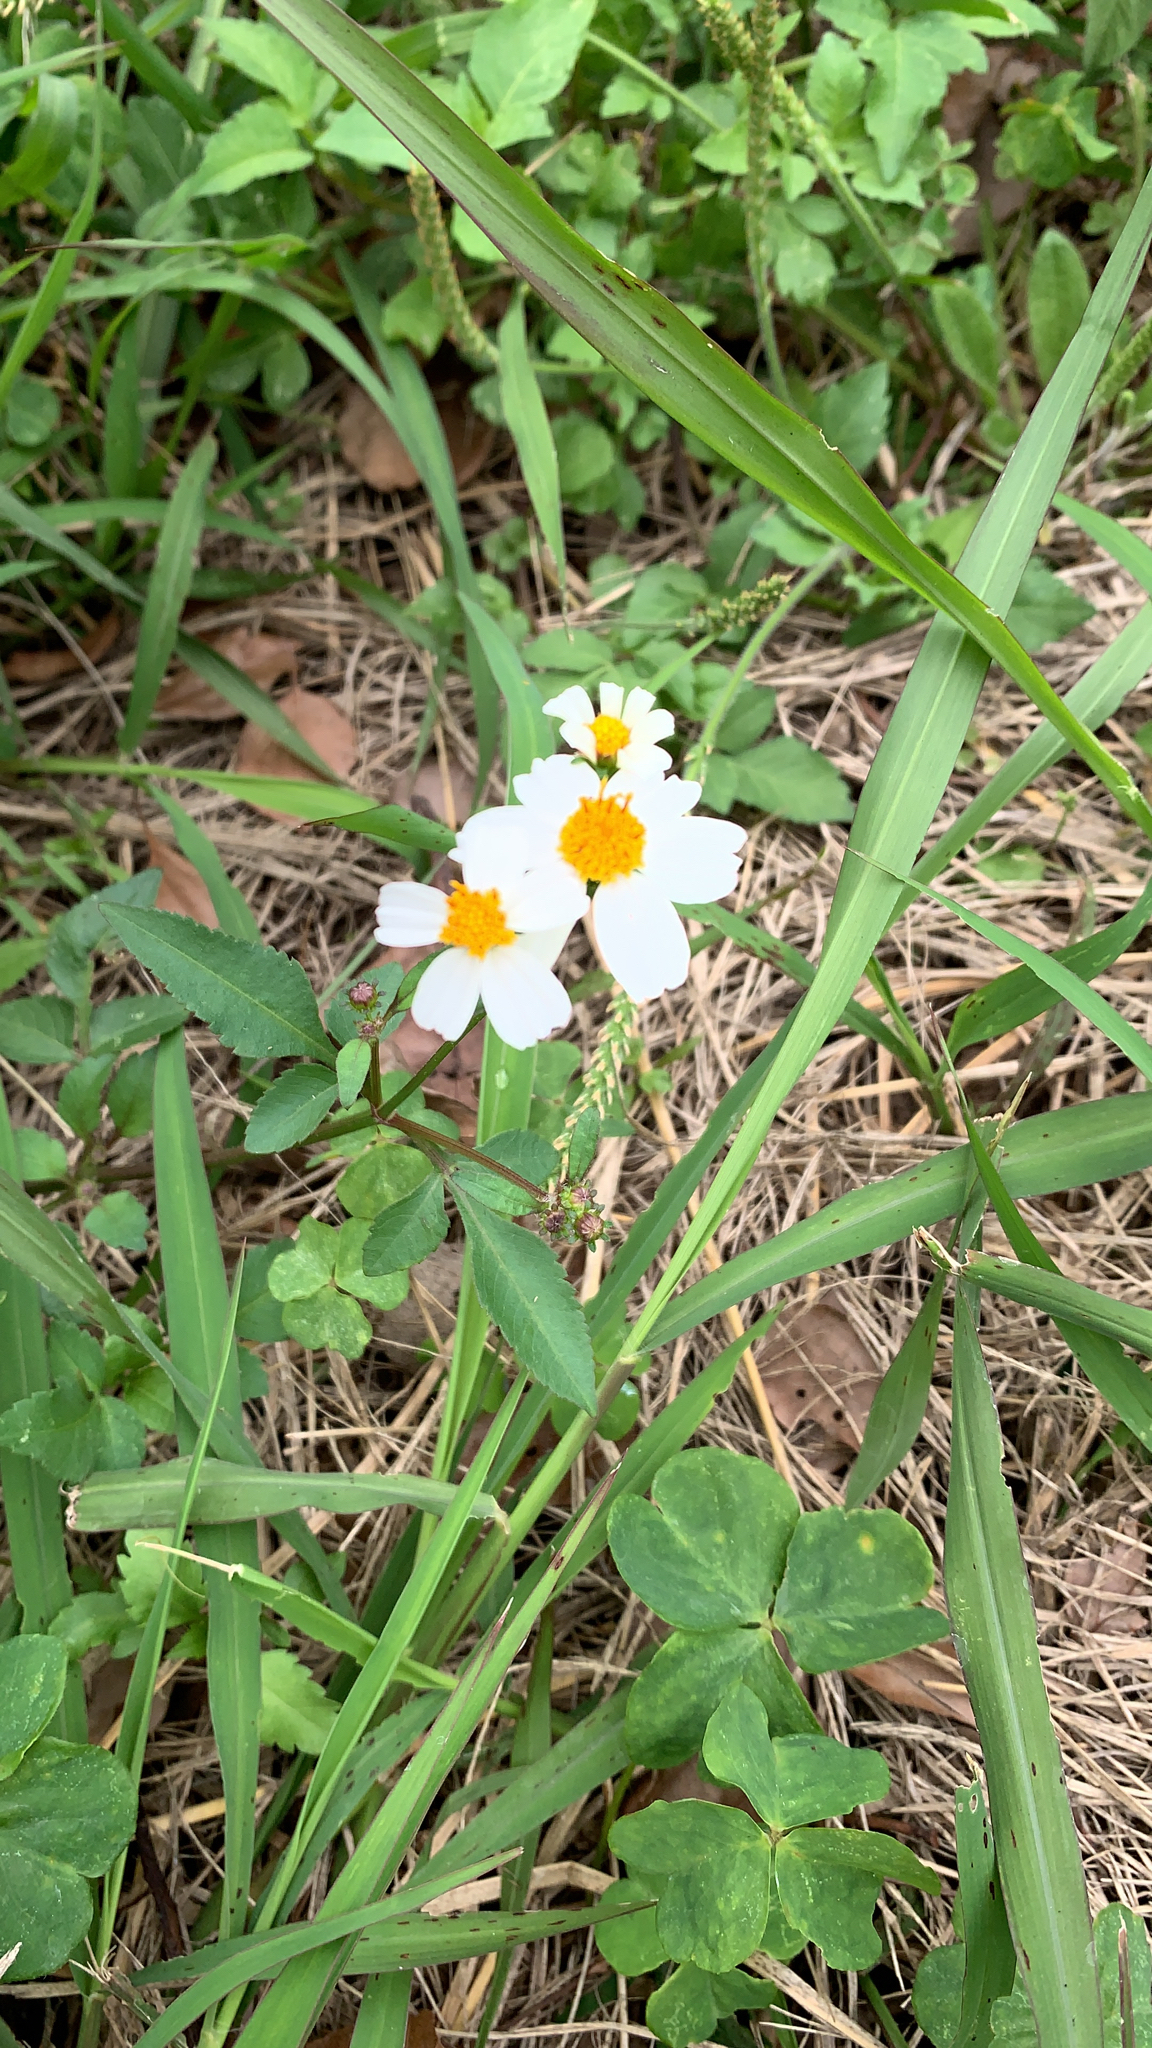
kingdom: Plantae
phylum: Tracheophyta
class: Magnoliopsida
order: Asterales
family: Asteraceae
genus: Bidens
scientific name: Bidens alba
